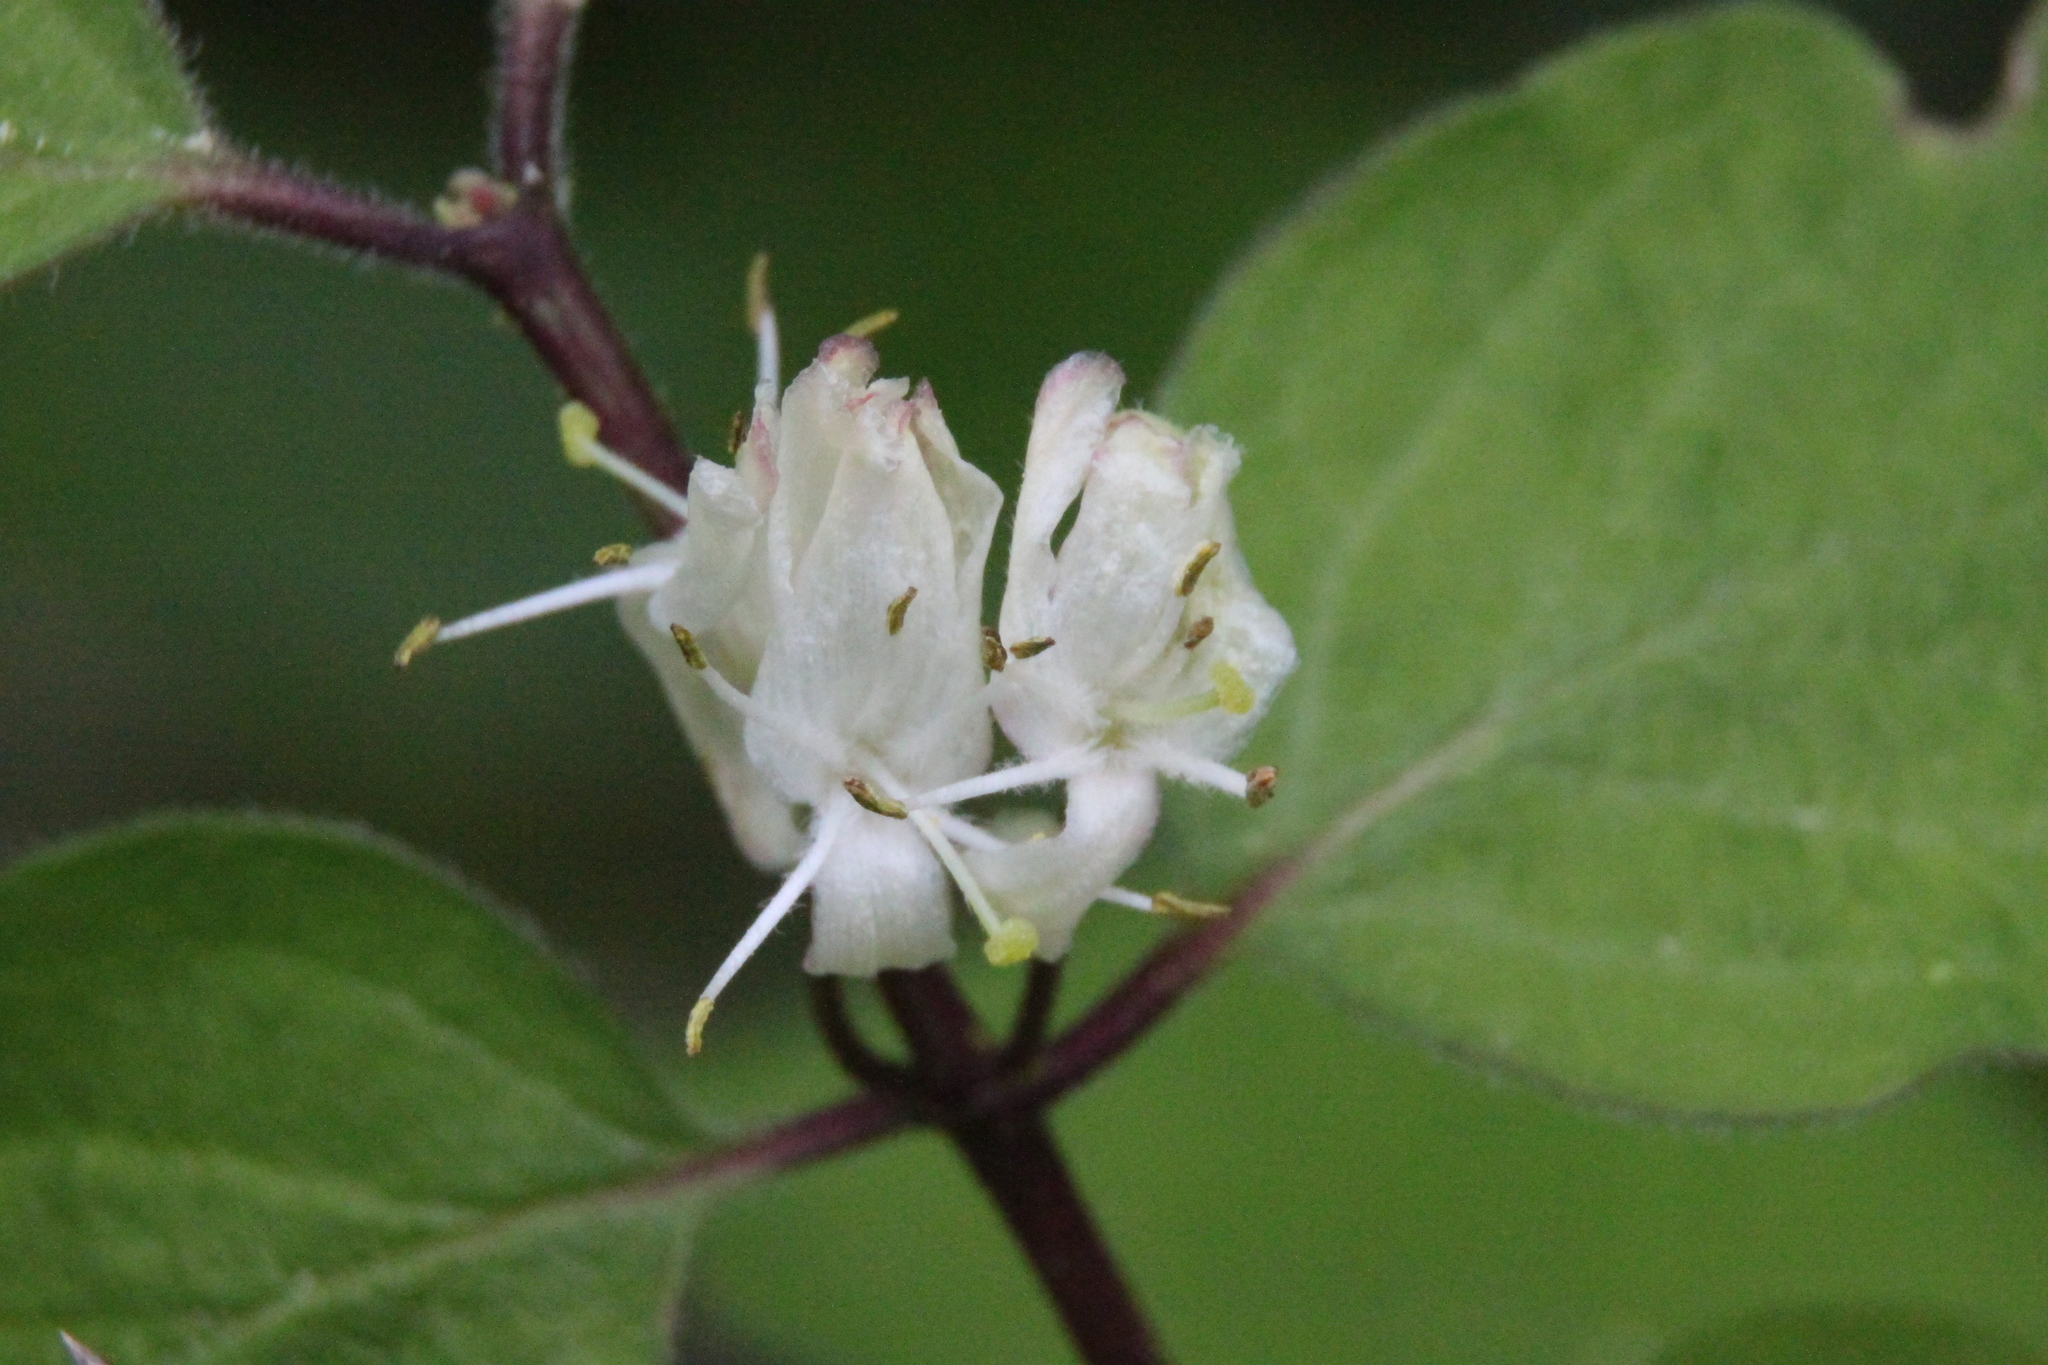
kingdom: Plantae
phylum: Tracheophyta
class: Magnoliopsida
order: Dipsacales
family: Caprifoliaceae
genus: Lonicera
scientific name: Lonicera xylosteum
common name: Fly honeysuckle
